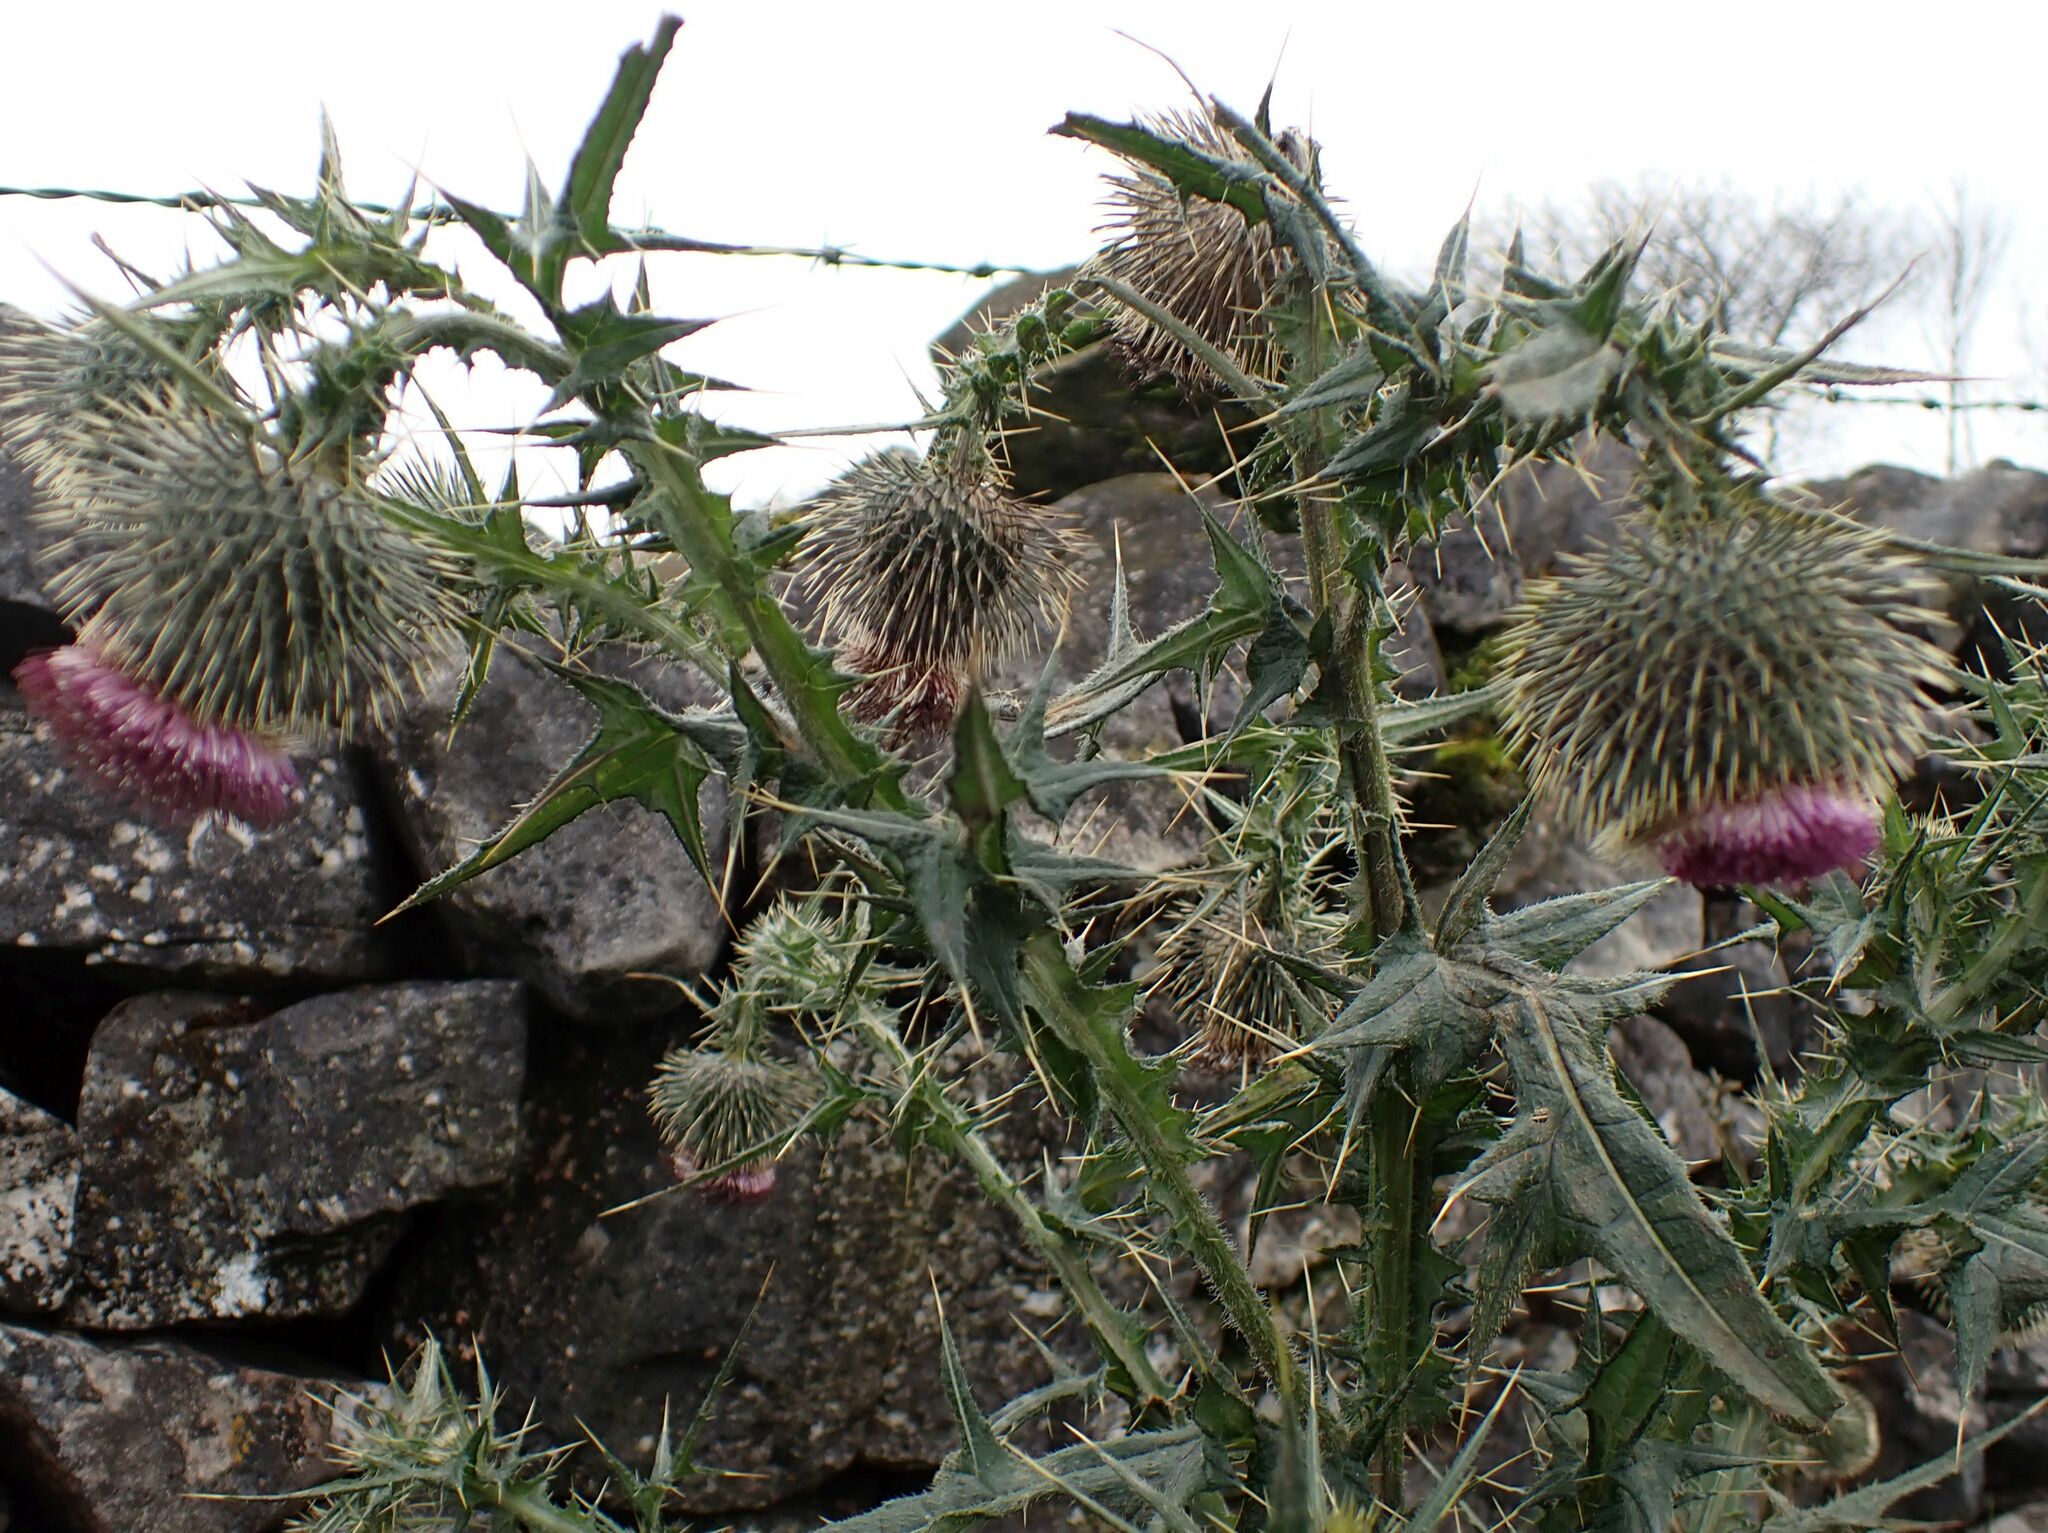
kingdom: Plantae
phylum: Tracheophyta
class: Magnoliopsida
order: Asterales
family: Asteraceae
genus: Cirsium
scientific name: Cirsium vulgare
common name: Bull thistle
